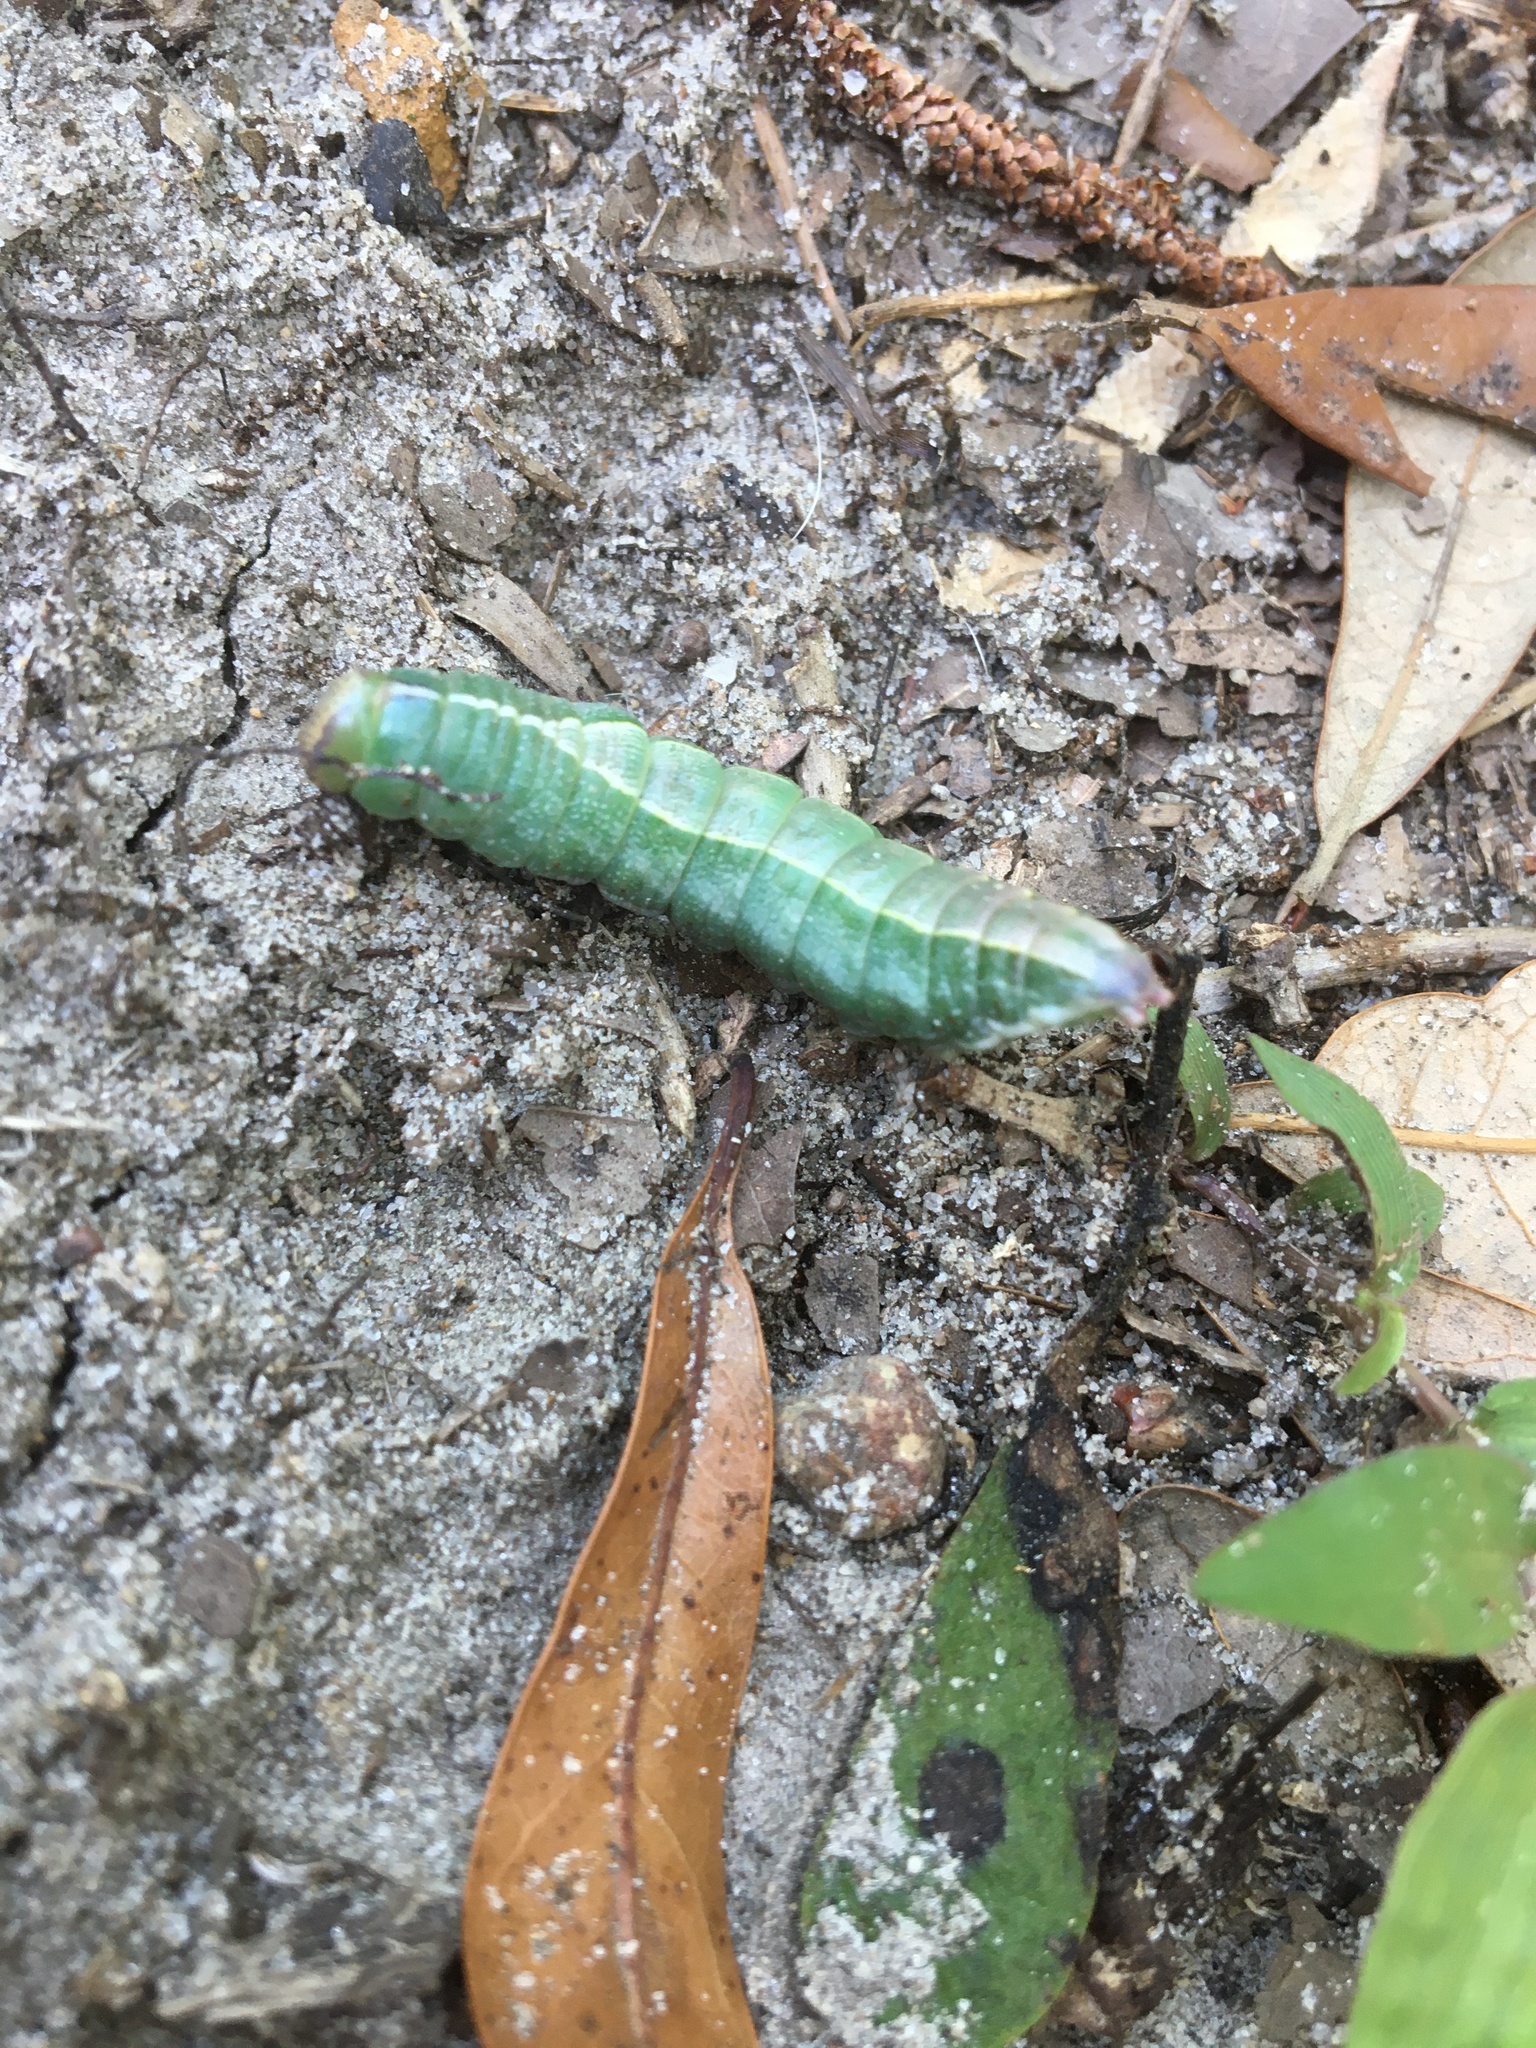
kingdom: Animalia
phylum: Arthropoda
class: Insecta
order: Lepidoptera
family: Notodontidae
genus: Heterocampa
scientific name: Heterocampa astartoides
